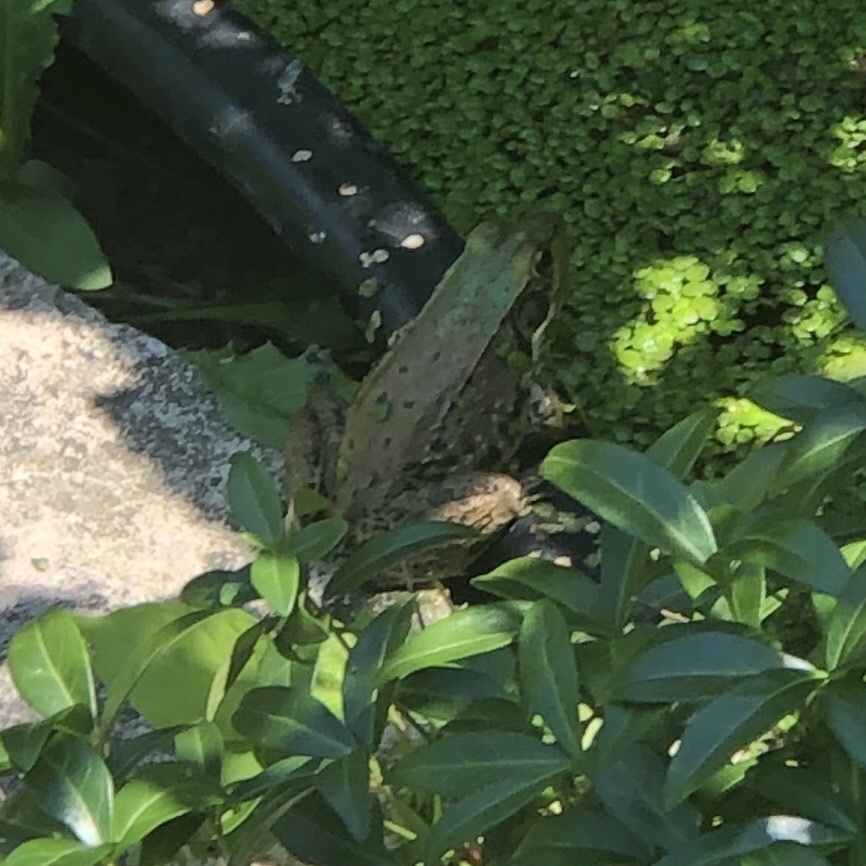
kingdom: Animalia
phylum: Chordata
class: Amphibia
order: Anura
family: Ranidae
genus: Lithobates
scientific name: Lithobates clamitans
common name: Green frog
